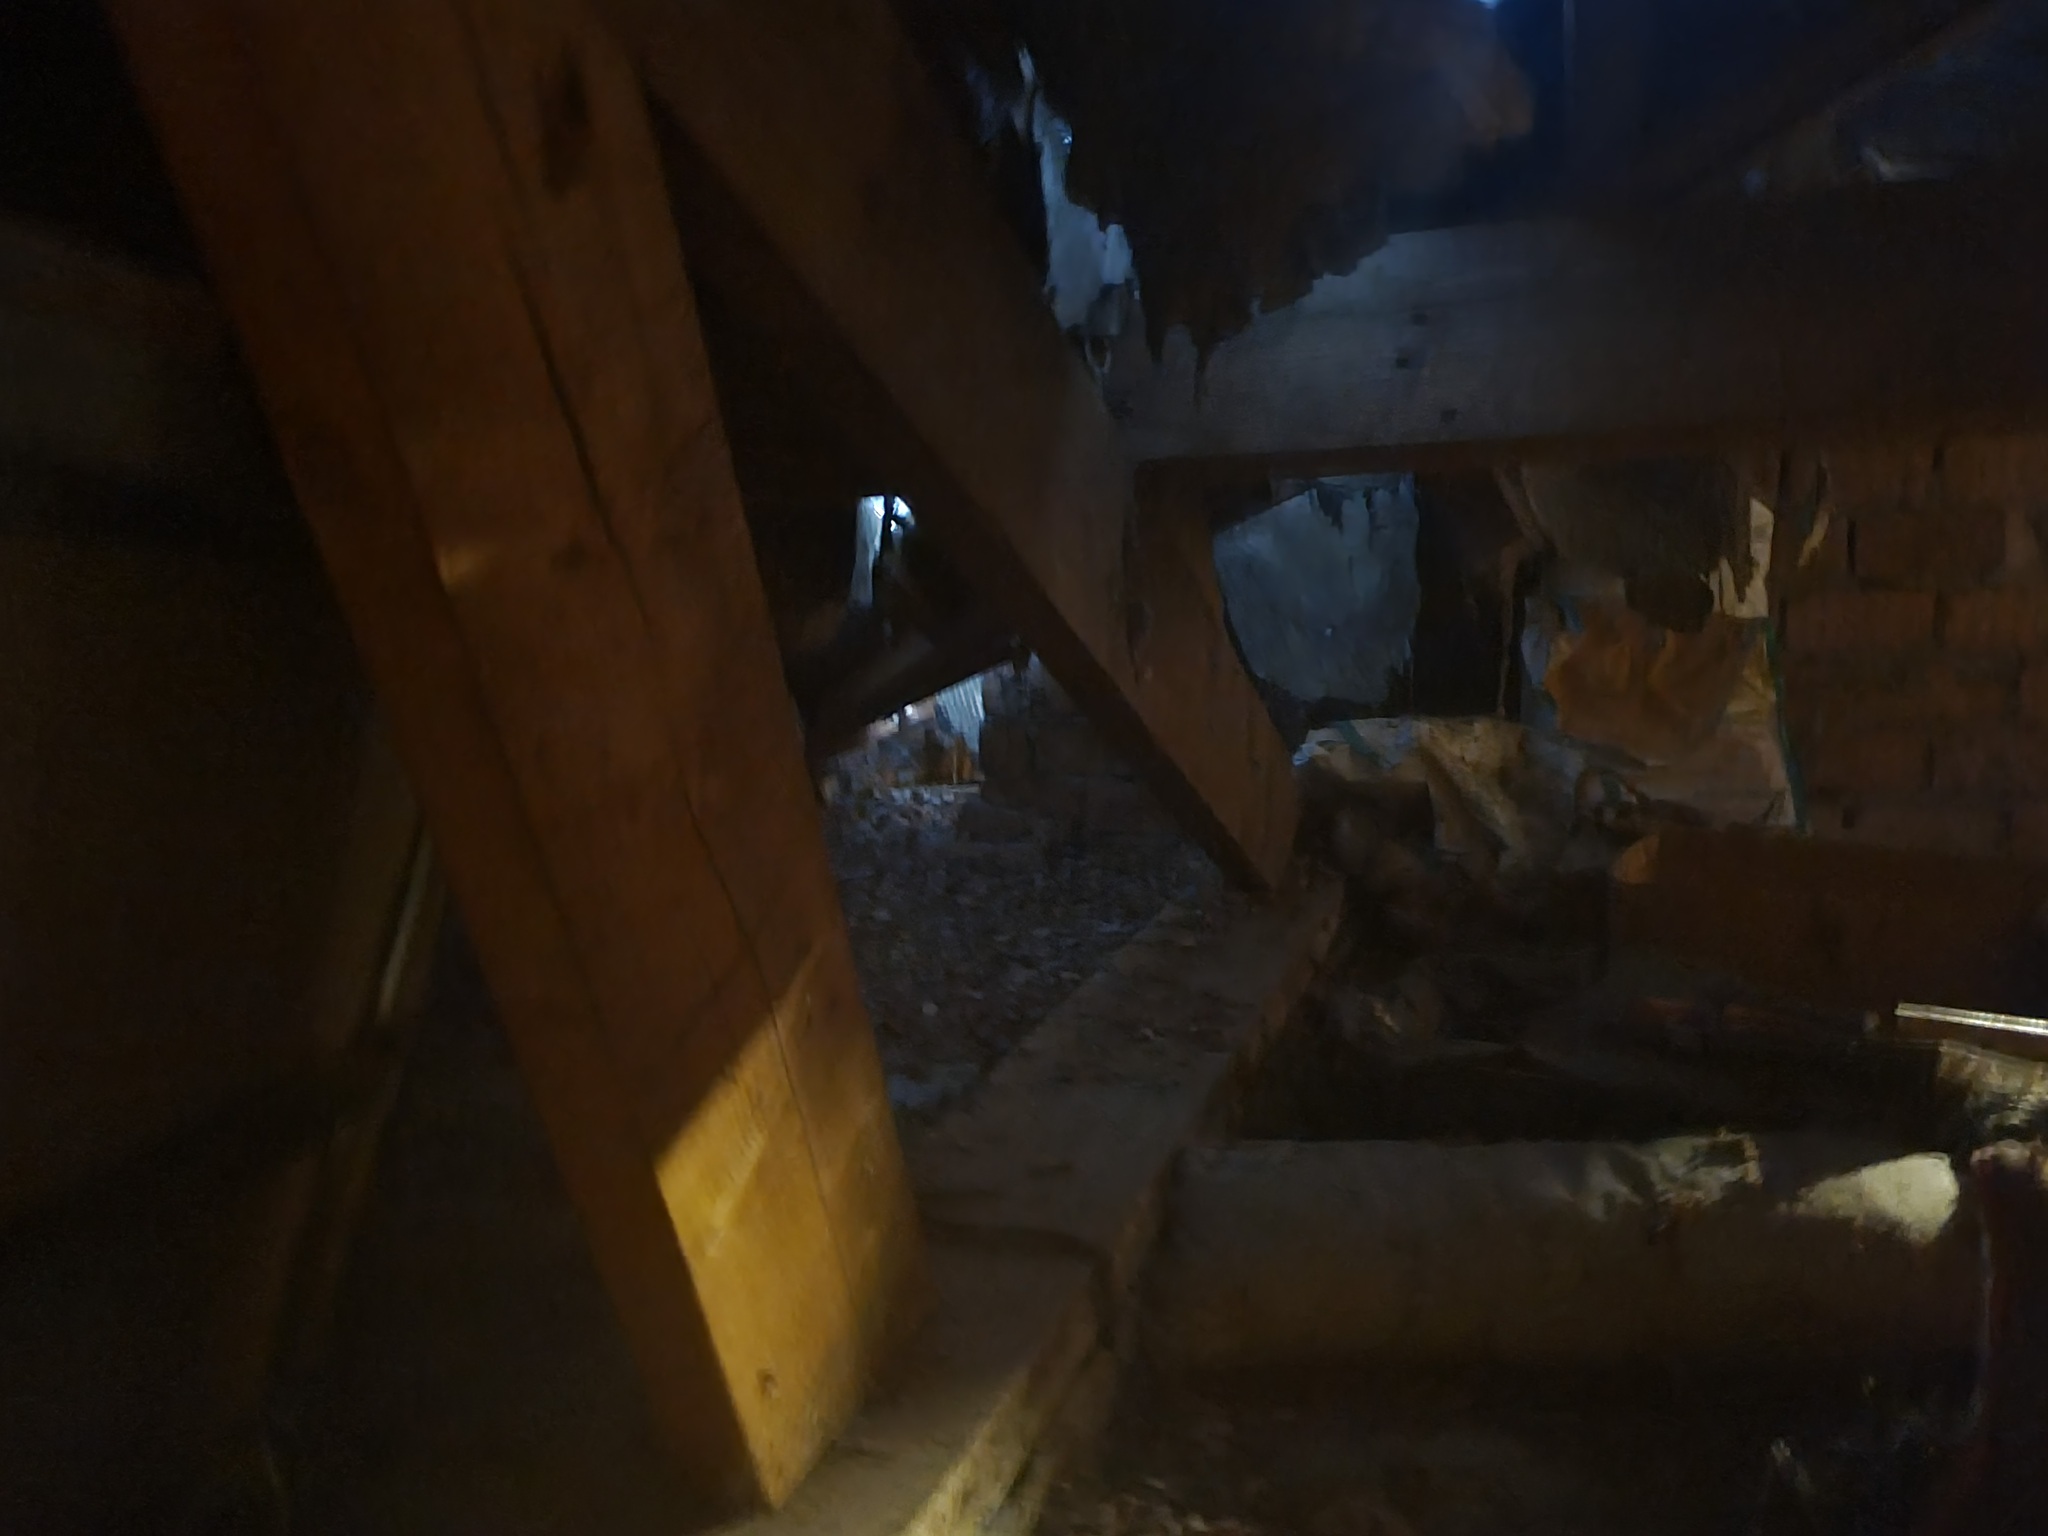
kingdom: Animalia
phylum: Arthropoda
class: Insecta
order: Hymenoptera
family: Vespidae
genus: Vespa
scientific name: Vespa velutina
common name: Asian hornet
